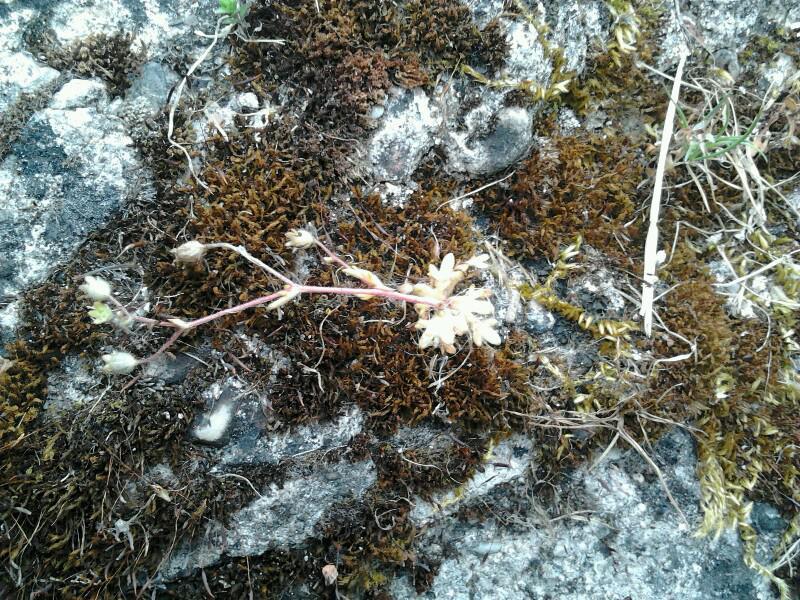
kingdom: Plantae
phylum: Tracheophyta
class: Magnoliopsida
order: Saxifragales
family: Saxifragaceae
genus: Saxifraga
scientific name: Saxifraga tridactylites
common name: Rue-leaved saxifrage
